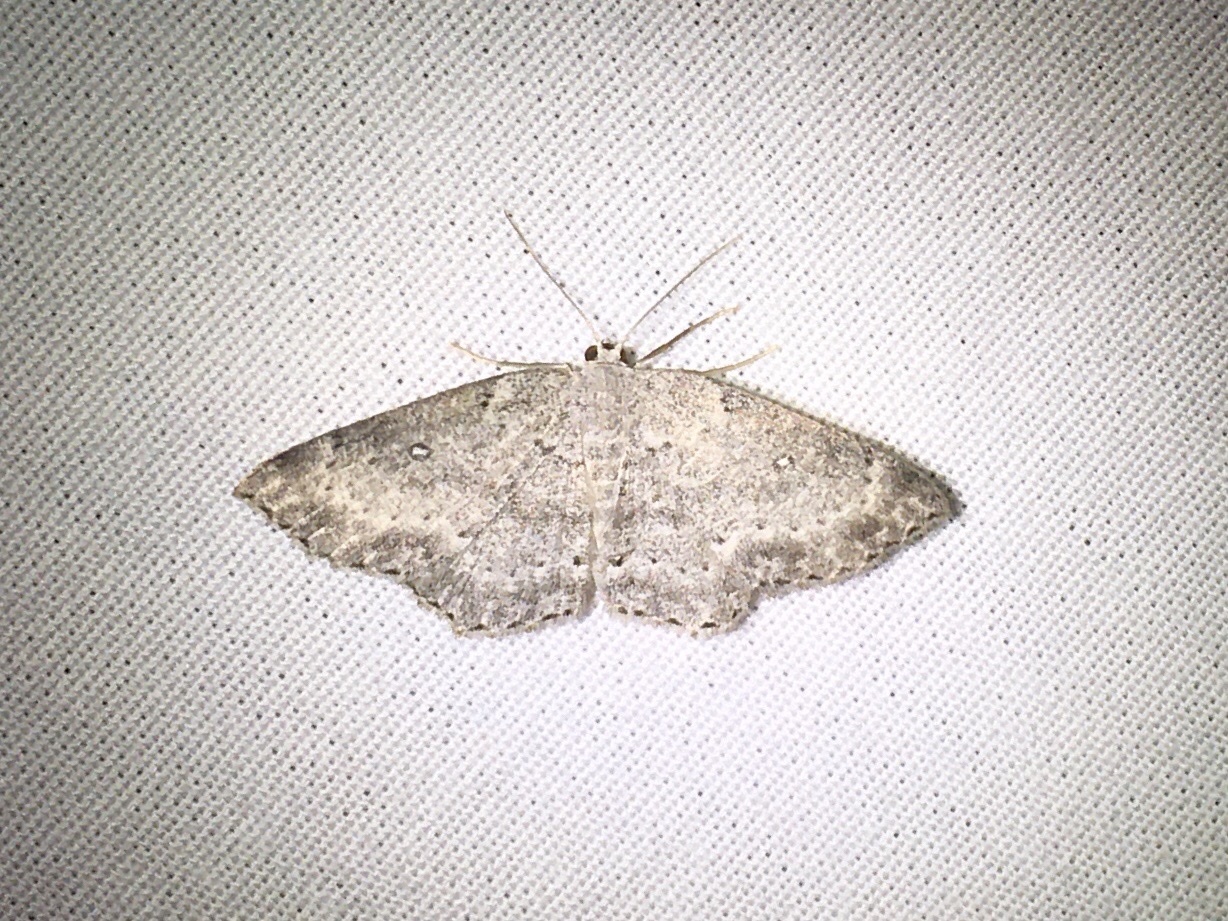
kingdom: Animalia
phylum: Arthropoda
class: Insecta
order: Lepidoptera
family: Geometridae
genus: Cyclophora
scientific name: Cyclophora pendulinaria
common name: Sweet fern geometer
